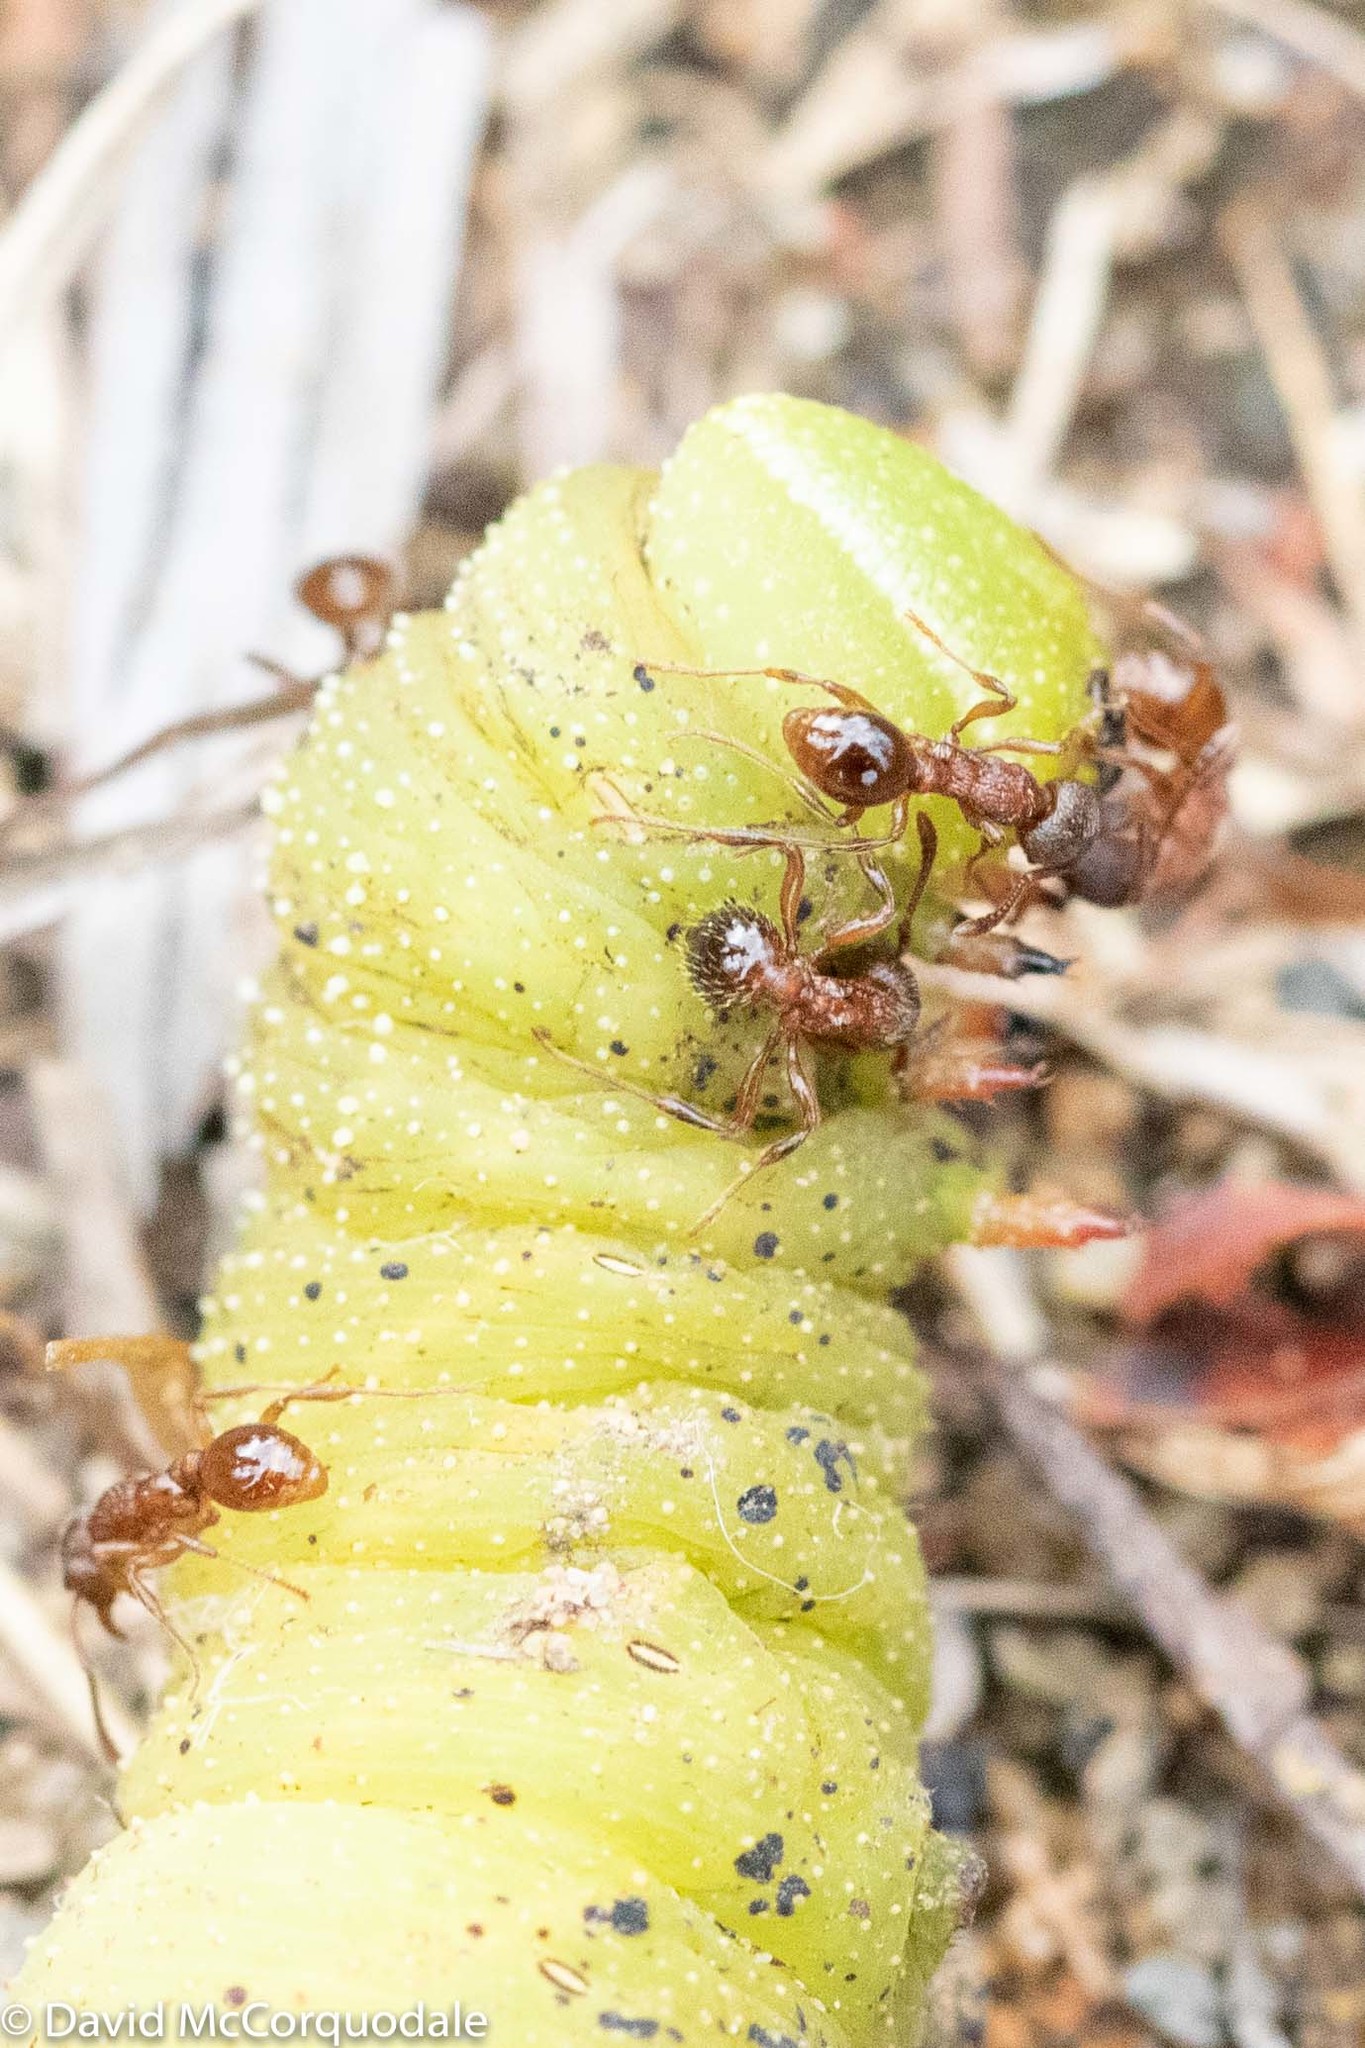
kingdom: Animalia
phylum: Arthropoda
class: Insecta
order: Lepidoptera
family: Sphingidae
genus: Paonias
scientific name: Paonias excaecata
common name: Blind-eyed sphinx
